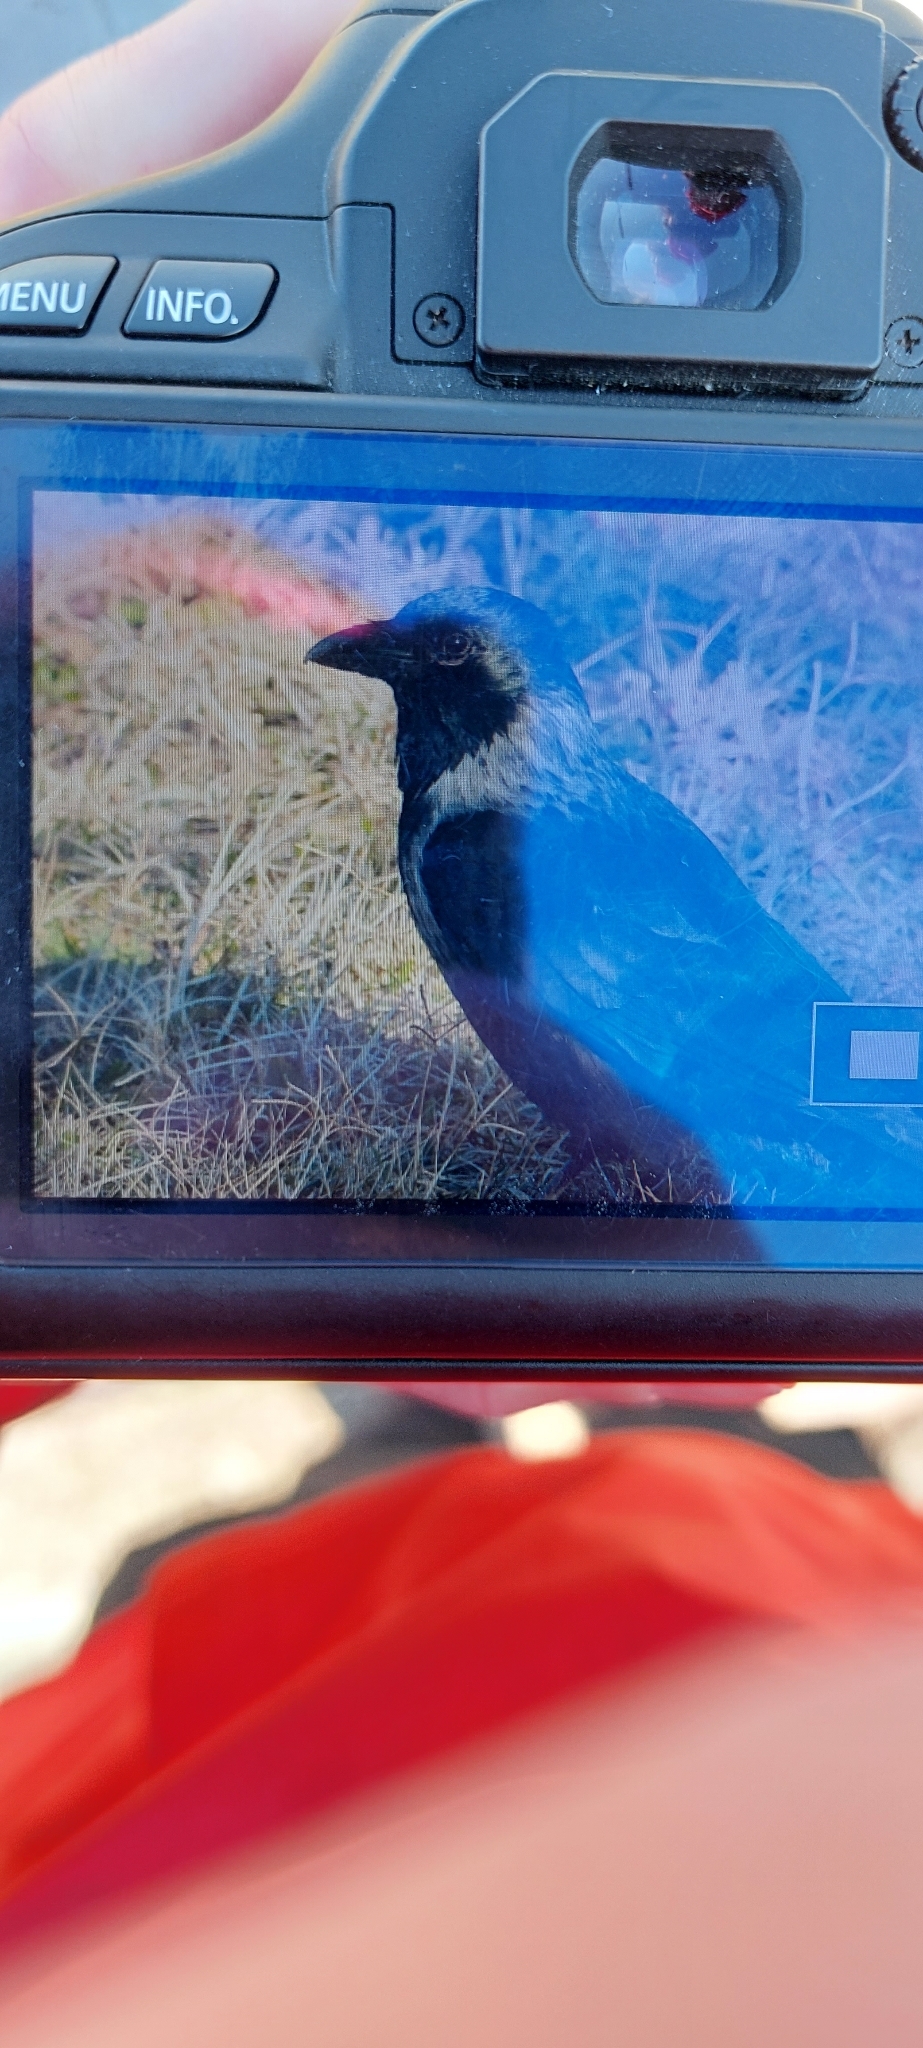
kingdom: Animalia
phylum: Chordata
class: Aves
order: Passeriformes
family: Corvidae
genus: Corvus
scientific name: Corvus
